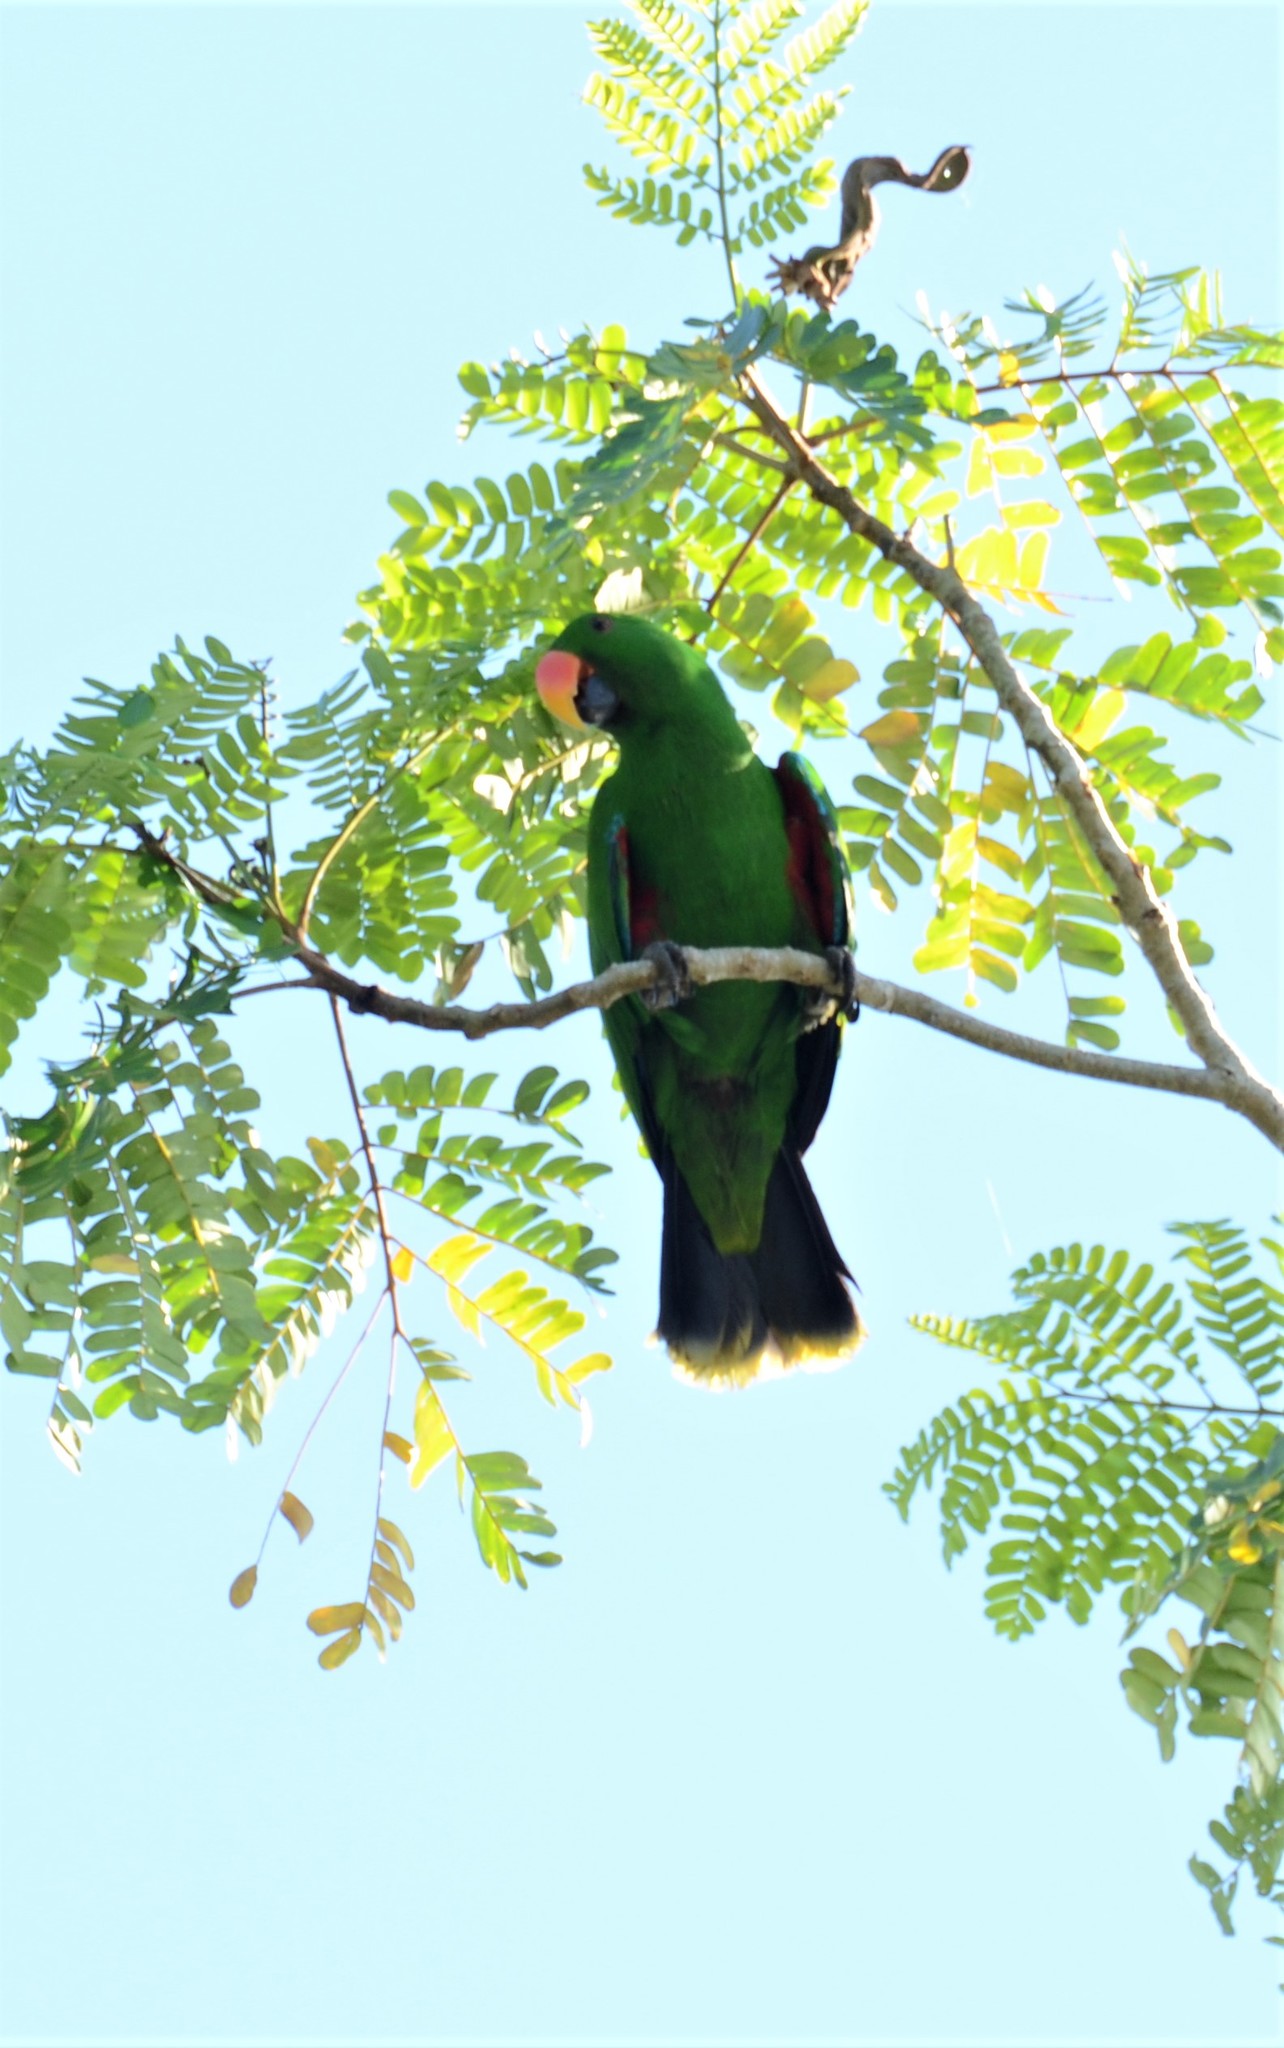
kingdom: Animalia
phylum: Chordata
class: Aves
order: Psittaciformes
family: Psittacidae
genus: Eclectus
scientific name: Eclectus roratus
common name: Eclectus parrot
